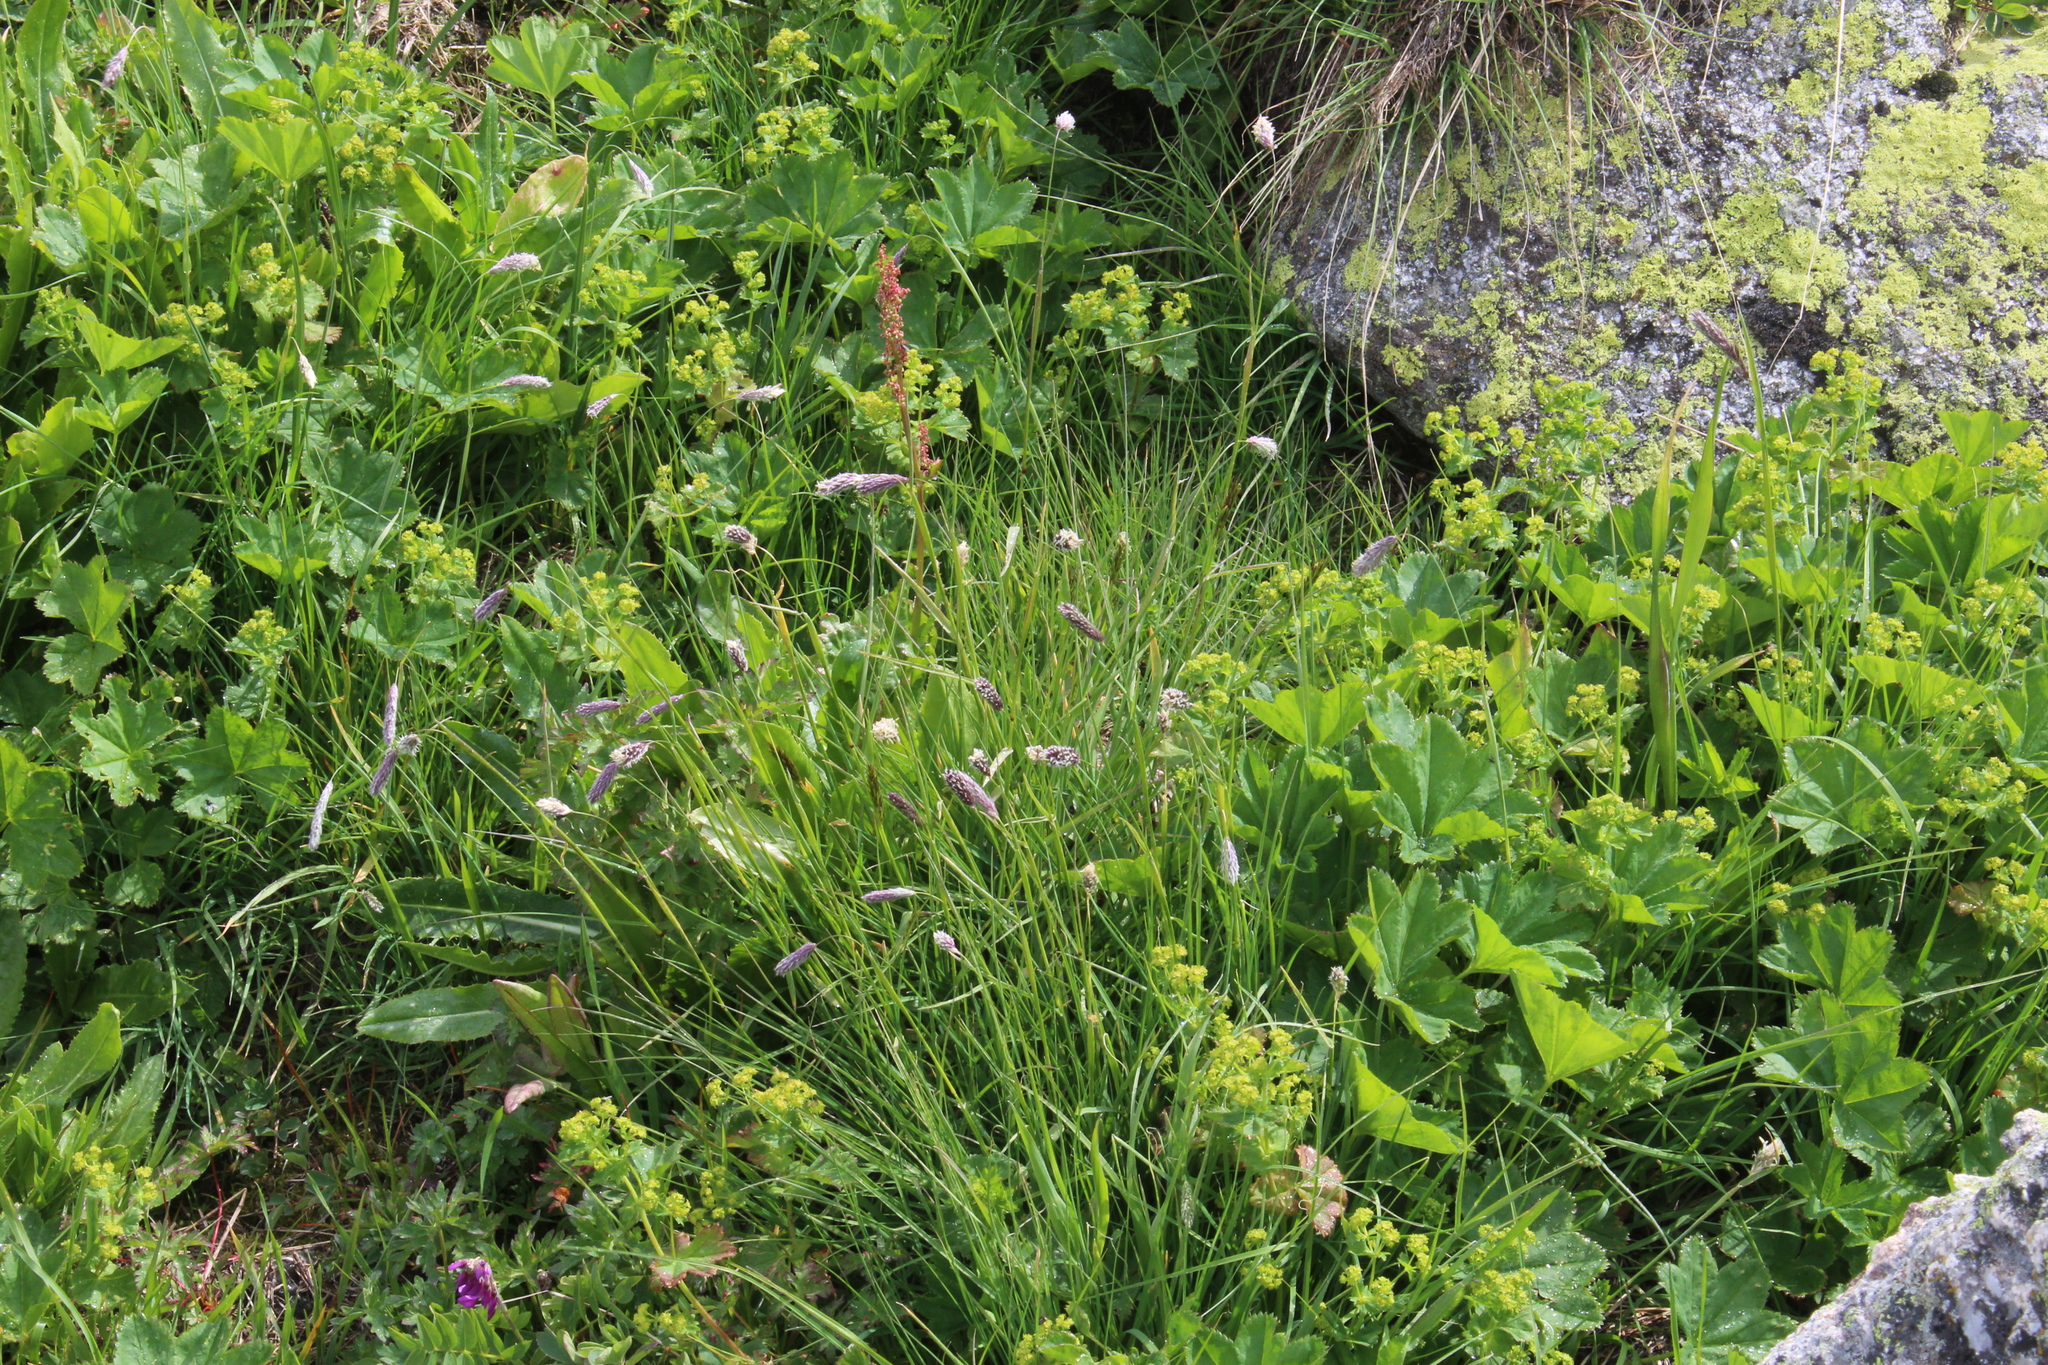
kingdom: Plantae
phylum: Tracheophyta
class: Liliopsida
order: Poales
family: Poaceae
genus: Alopecurus
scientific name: Alopecurus ponticus
